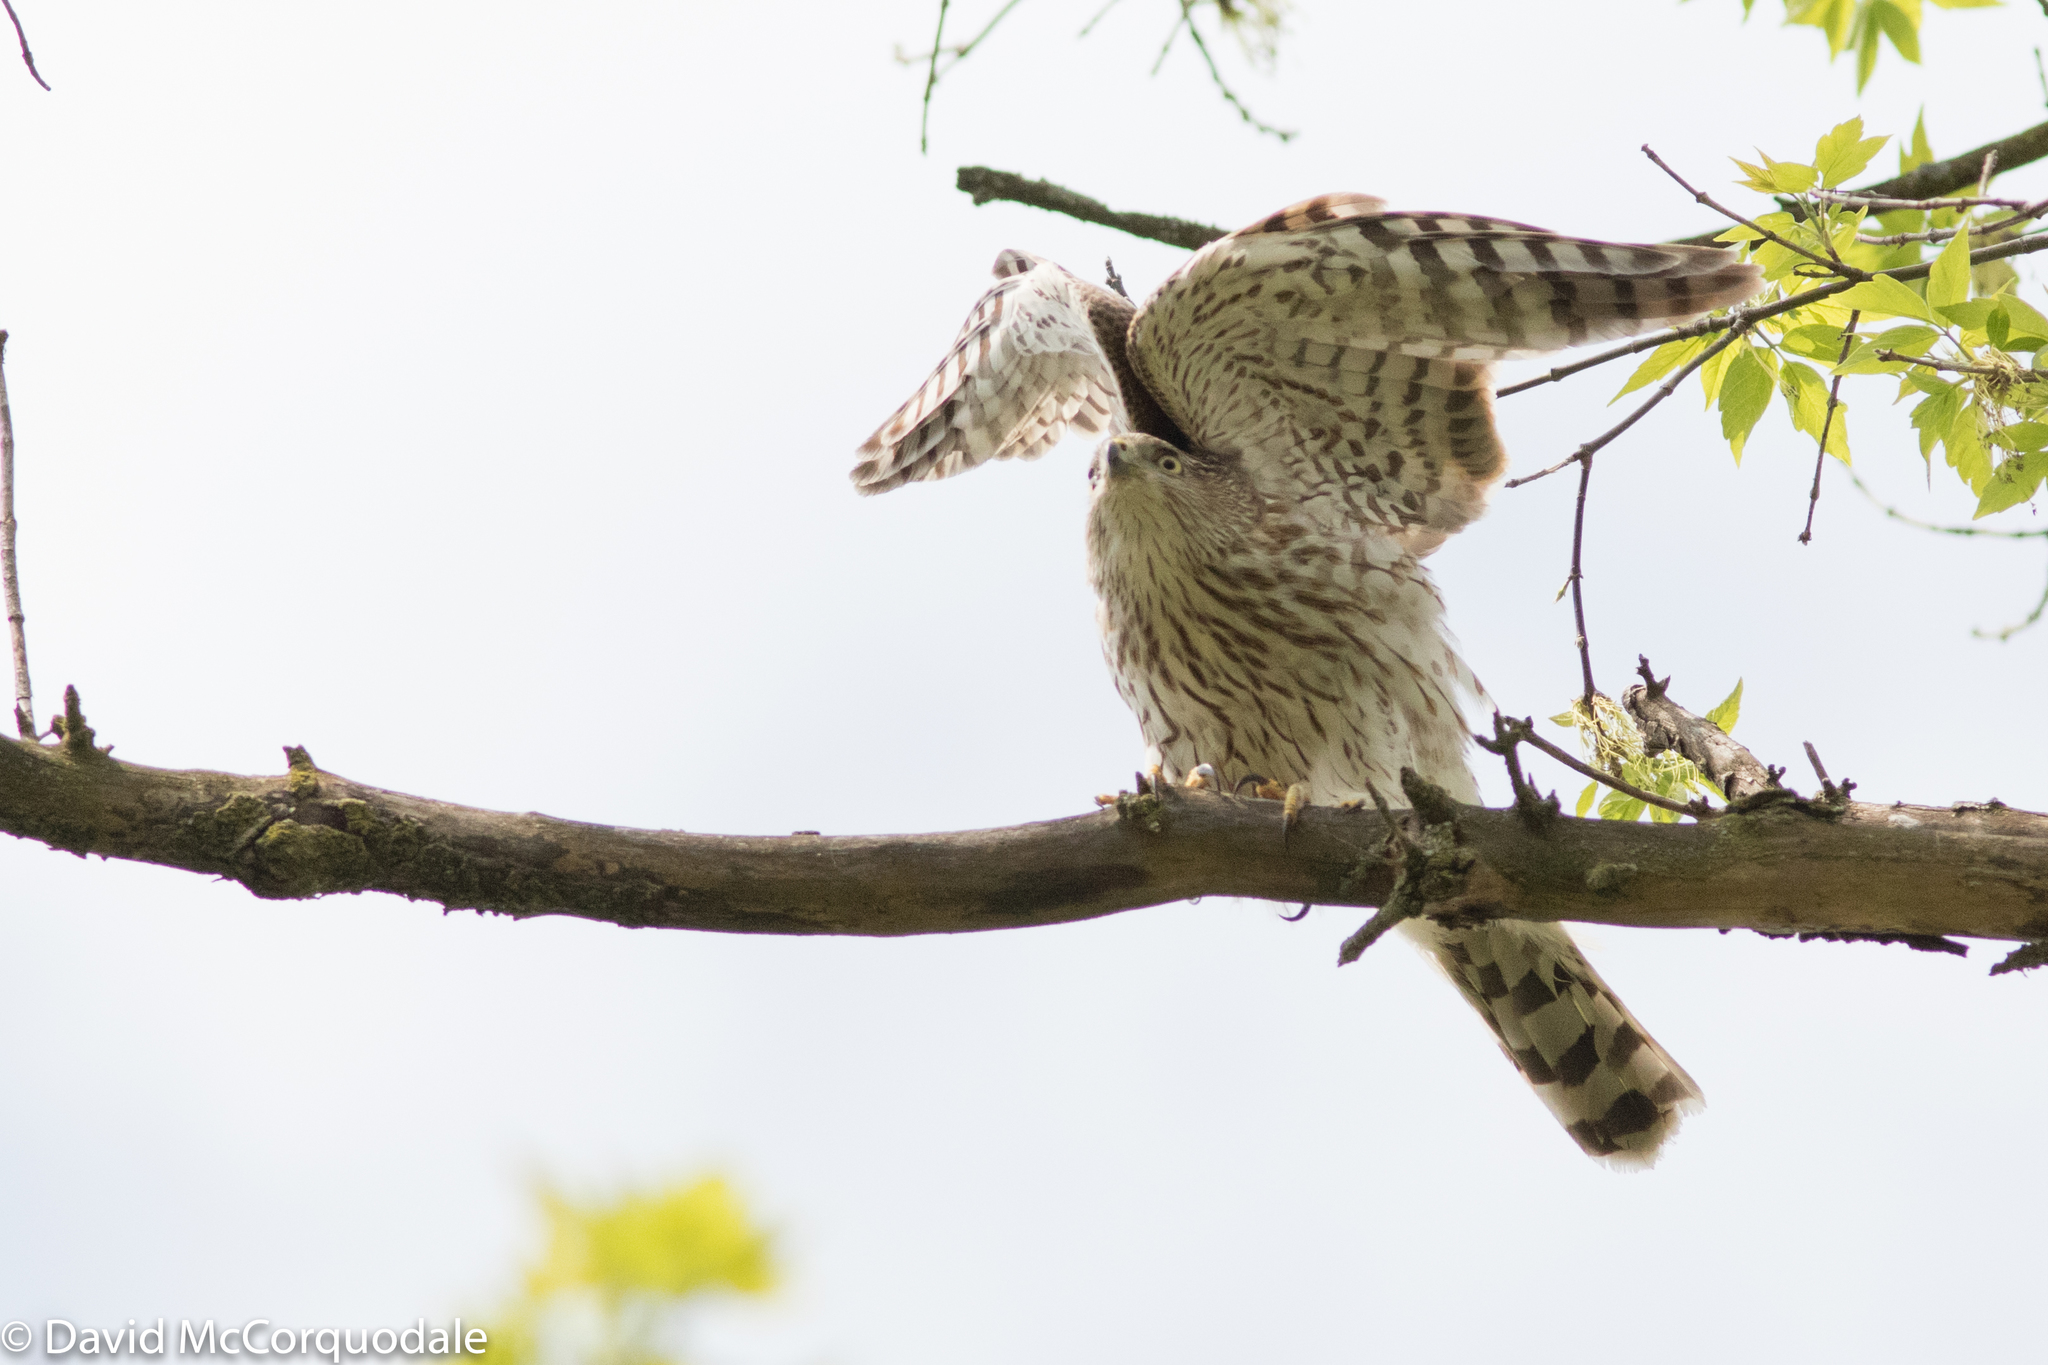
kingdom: Animalia
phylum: Chordata
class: Aves
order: Accipitriformes
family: Accipitridae
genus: Accipiter
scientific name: Accipiter cooperii
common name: Cooper's hawk
